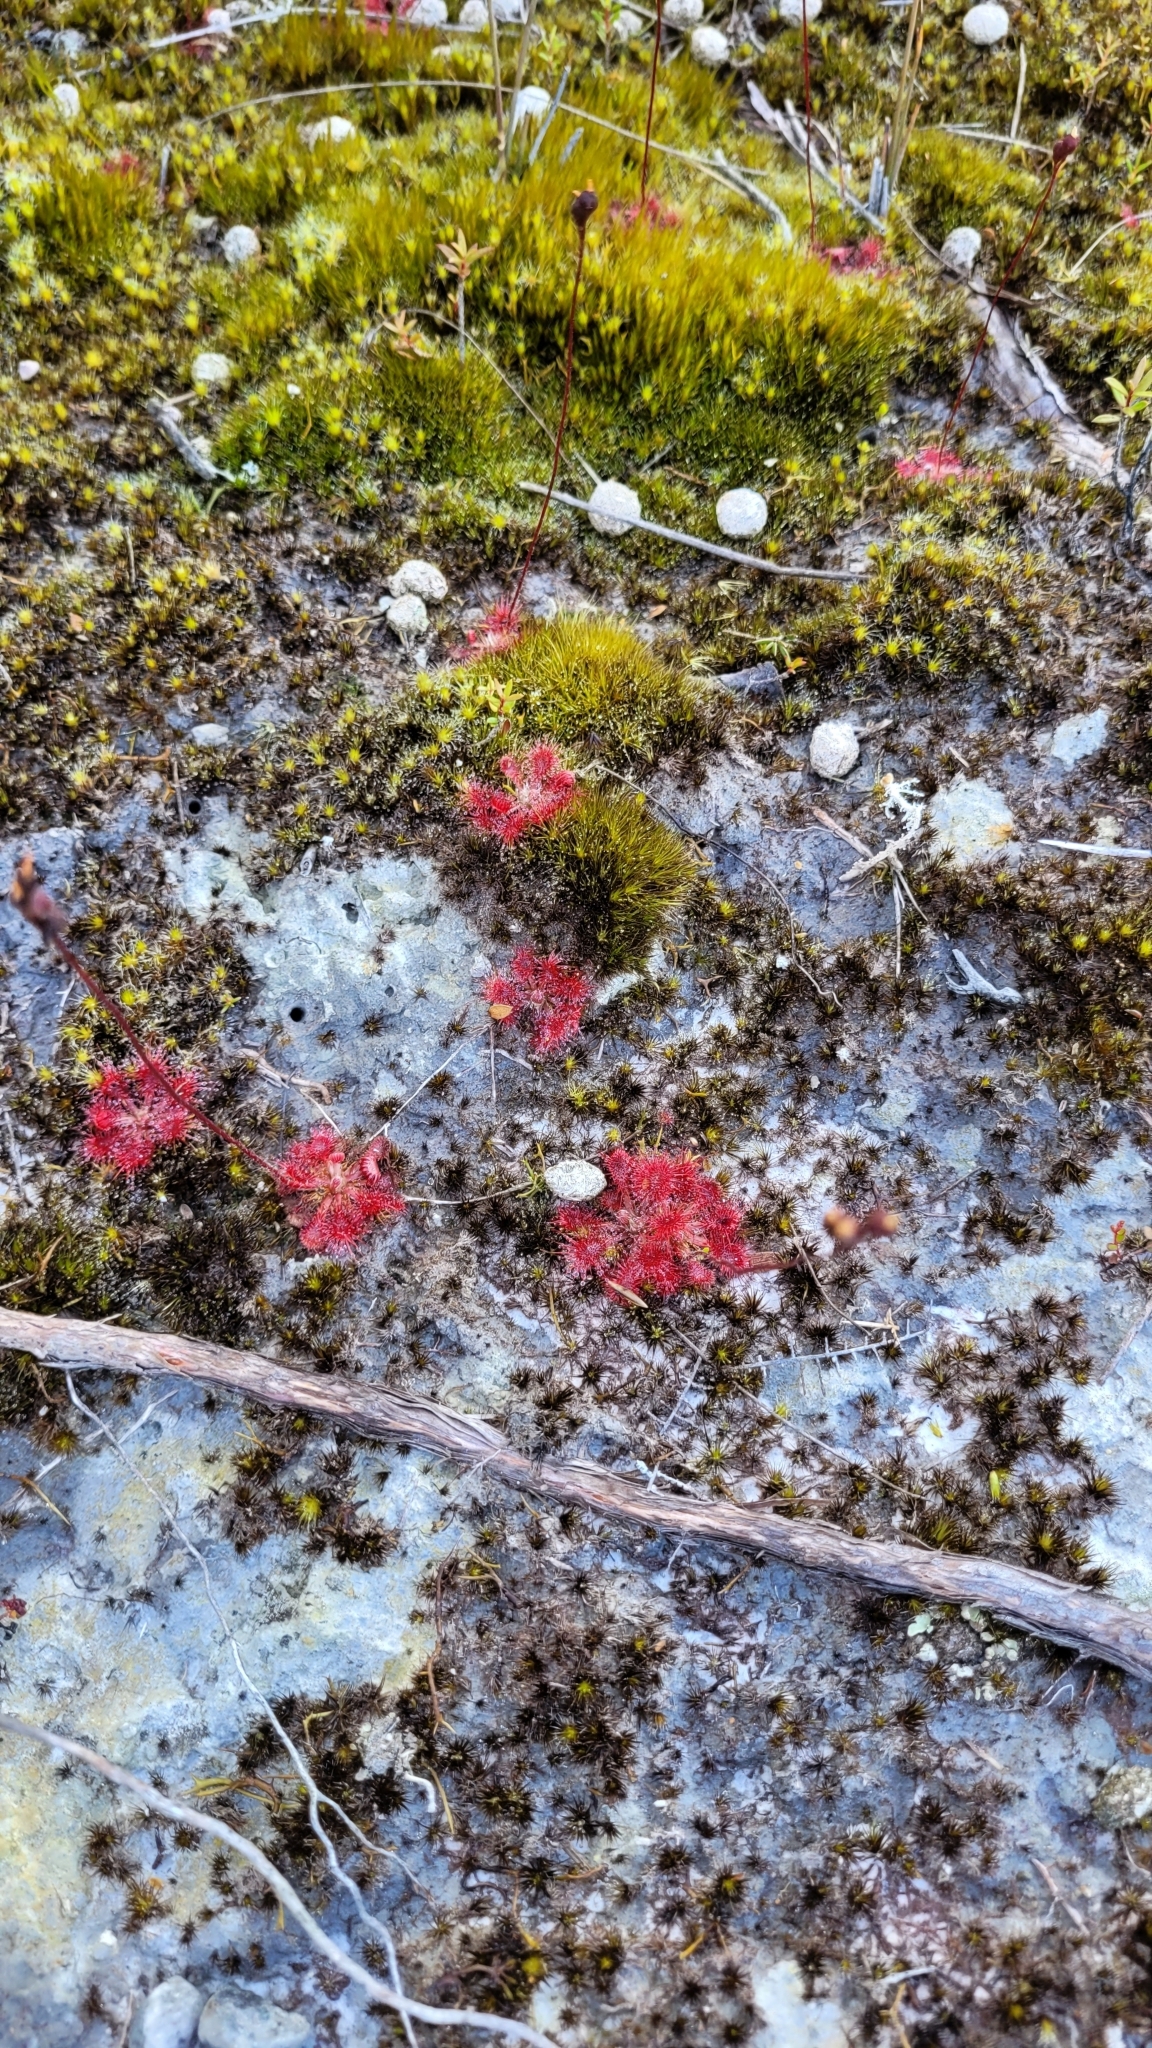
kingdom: Plantae
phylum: Tracheophyta
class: Magnoliopsida
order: Caryophyllales
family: Droseraceae
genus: Drosera
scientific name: Drosera spatulata
